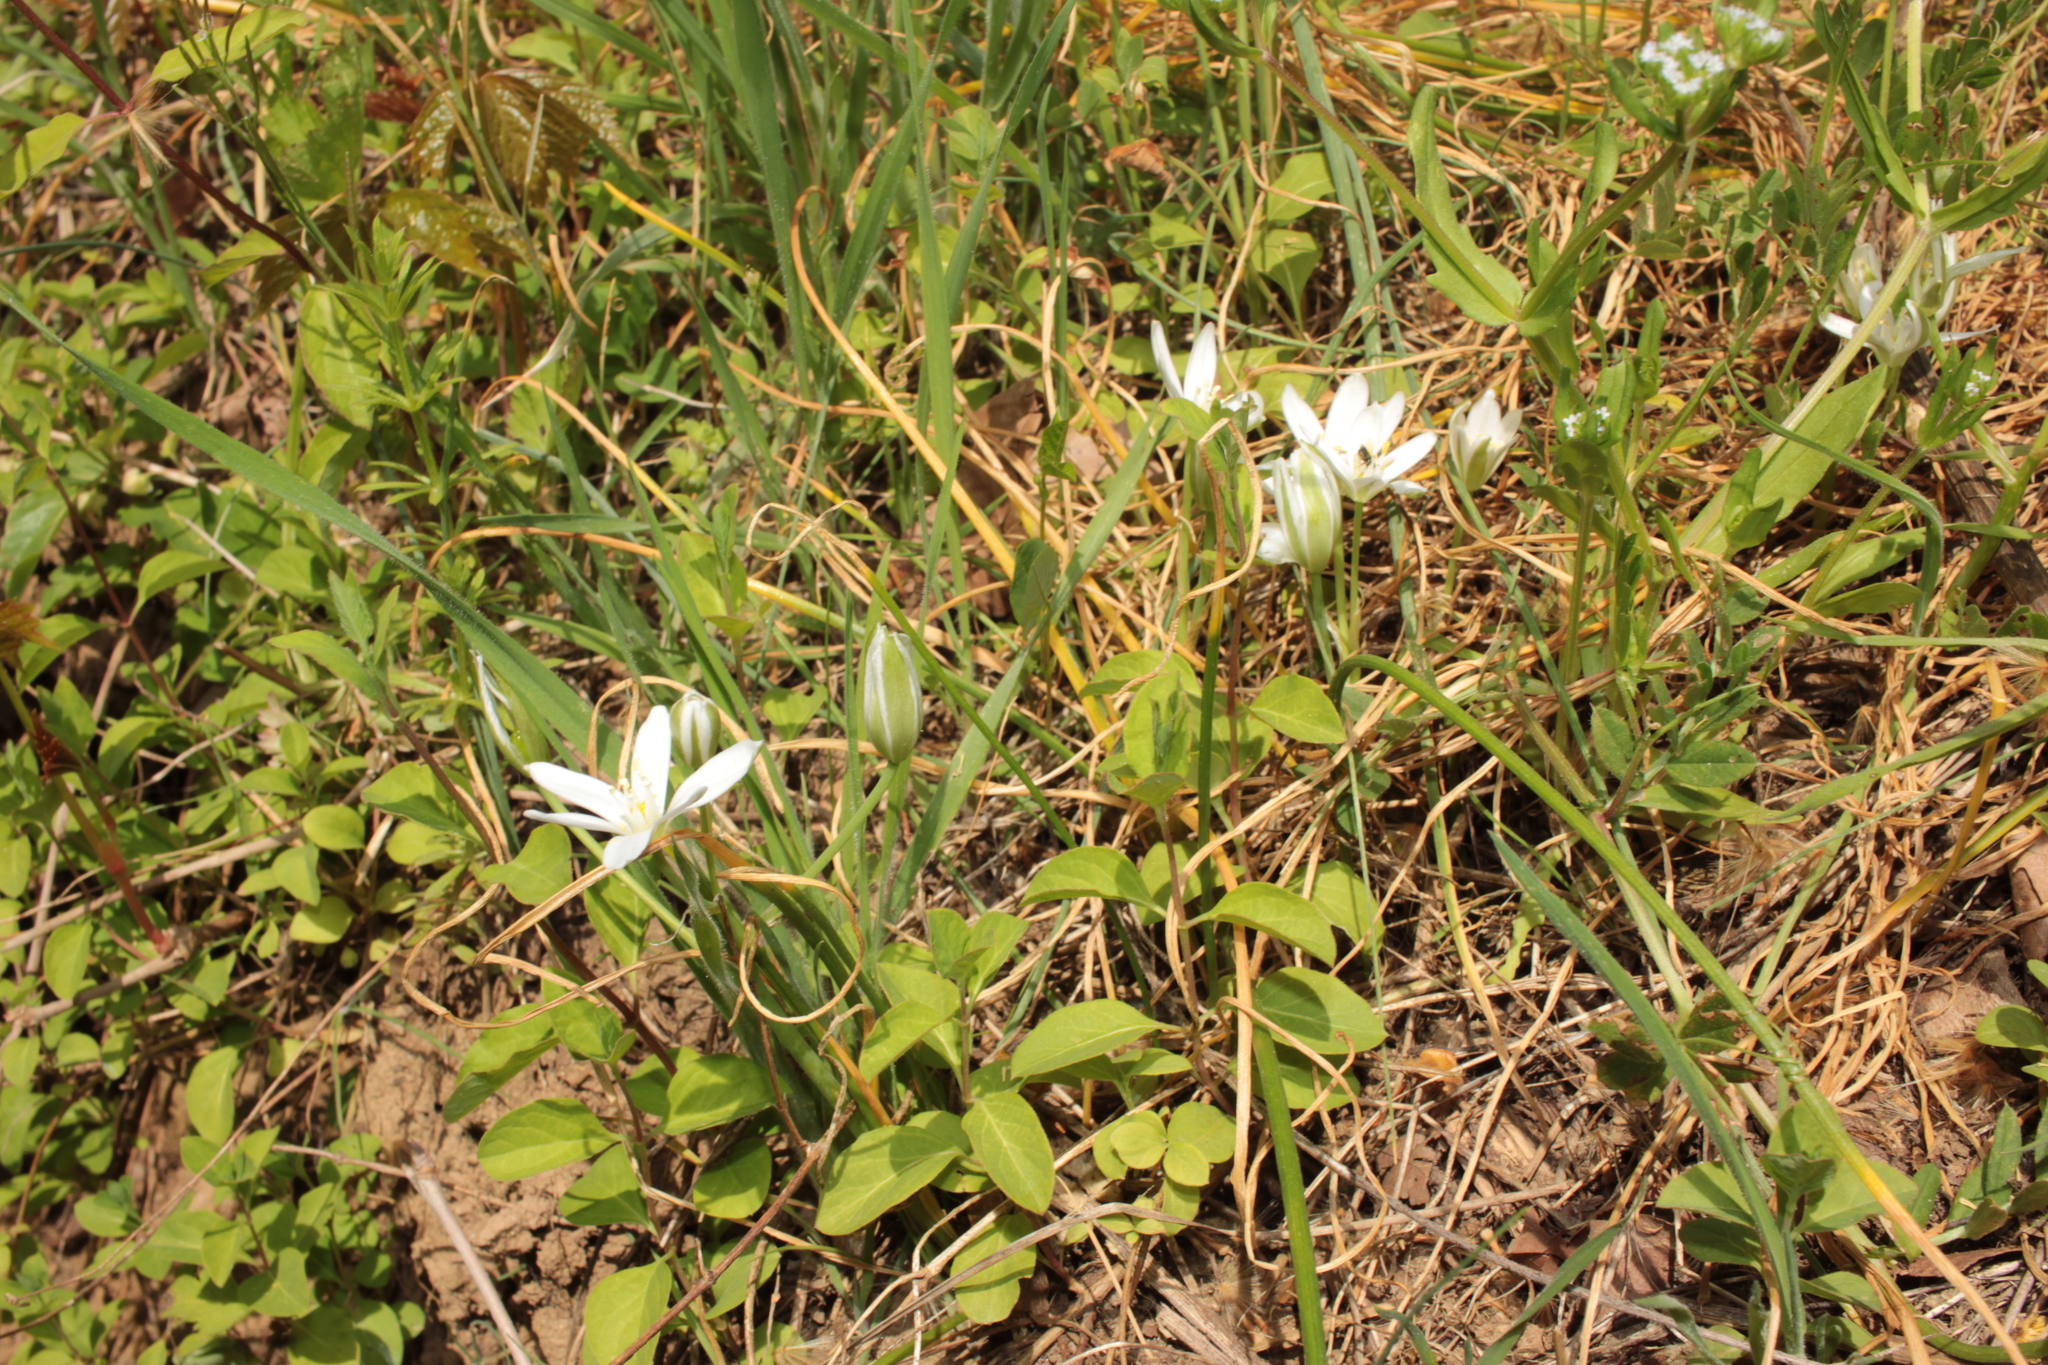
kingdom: Plantae
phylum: Tracheophyta
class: Liliopsida
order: Asparagales
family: Asparagaceae
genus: Ornithogalum
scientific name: Ornithogalum umbellatum
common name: Garden star-of-bethlehem
